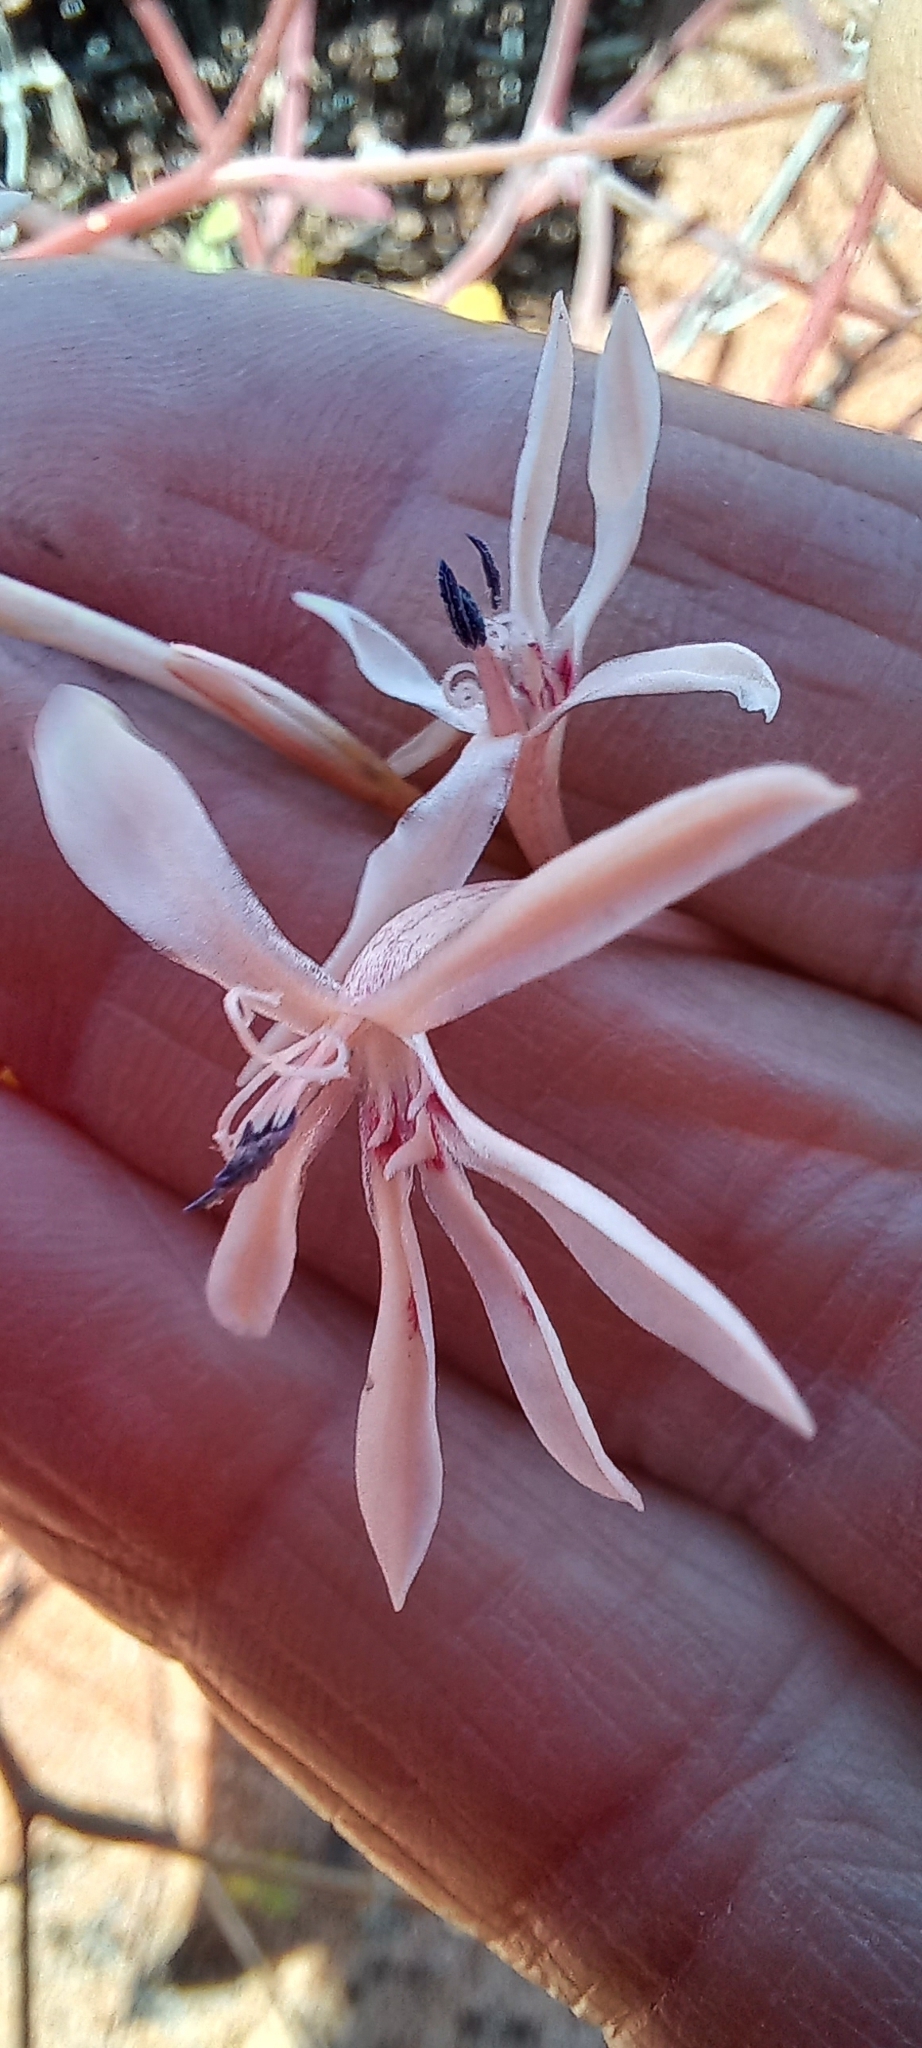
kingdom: Plantae
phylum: Tracheophyta
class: Liliopsida
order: Asparagales
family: Iridaceae
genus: Lapeirousia
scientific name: Lapeirousia anceps
